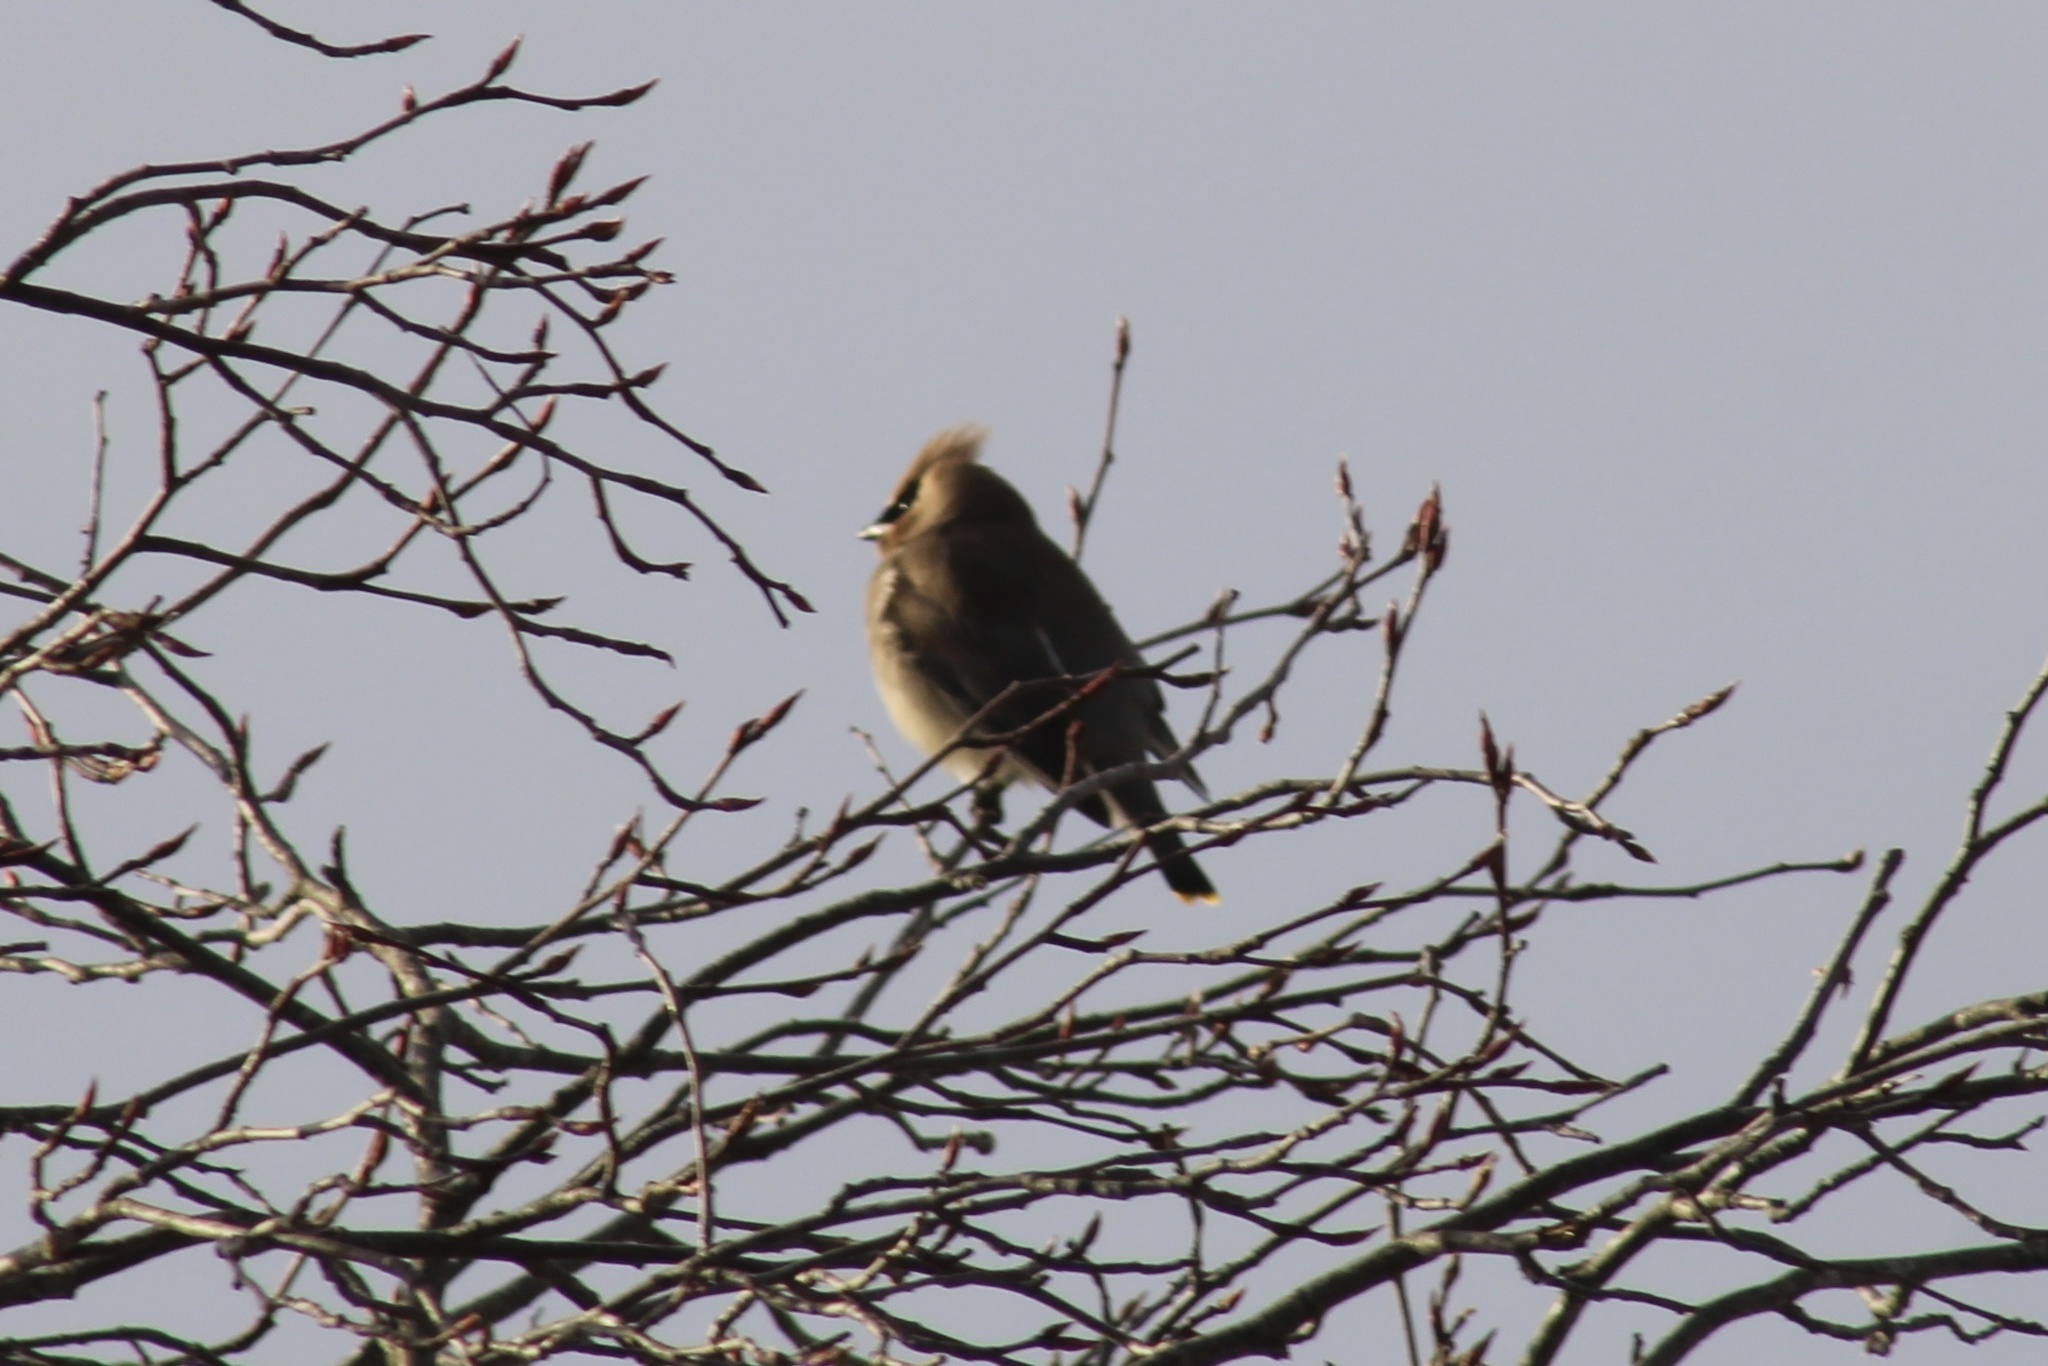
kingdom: Animalia
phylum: Chordata
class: Aves
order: Passeriformes
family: Bombycillidae
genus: Bombycilla
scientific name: Bombycilla cedrorum
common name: Cedar waxwing
